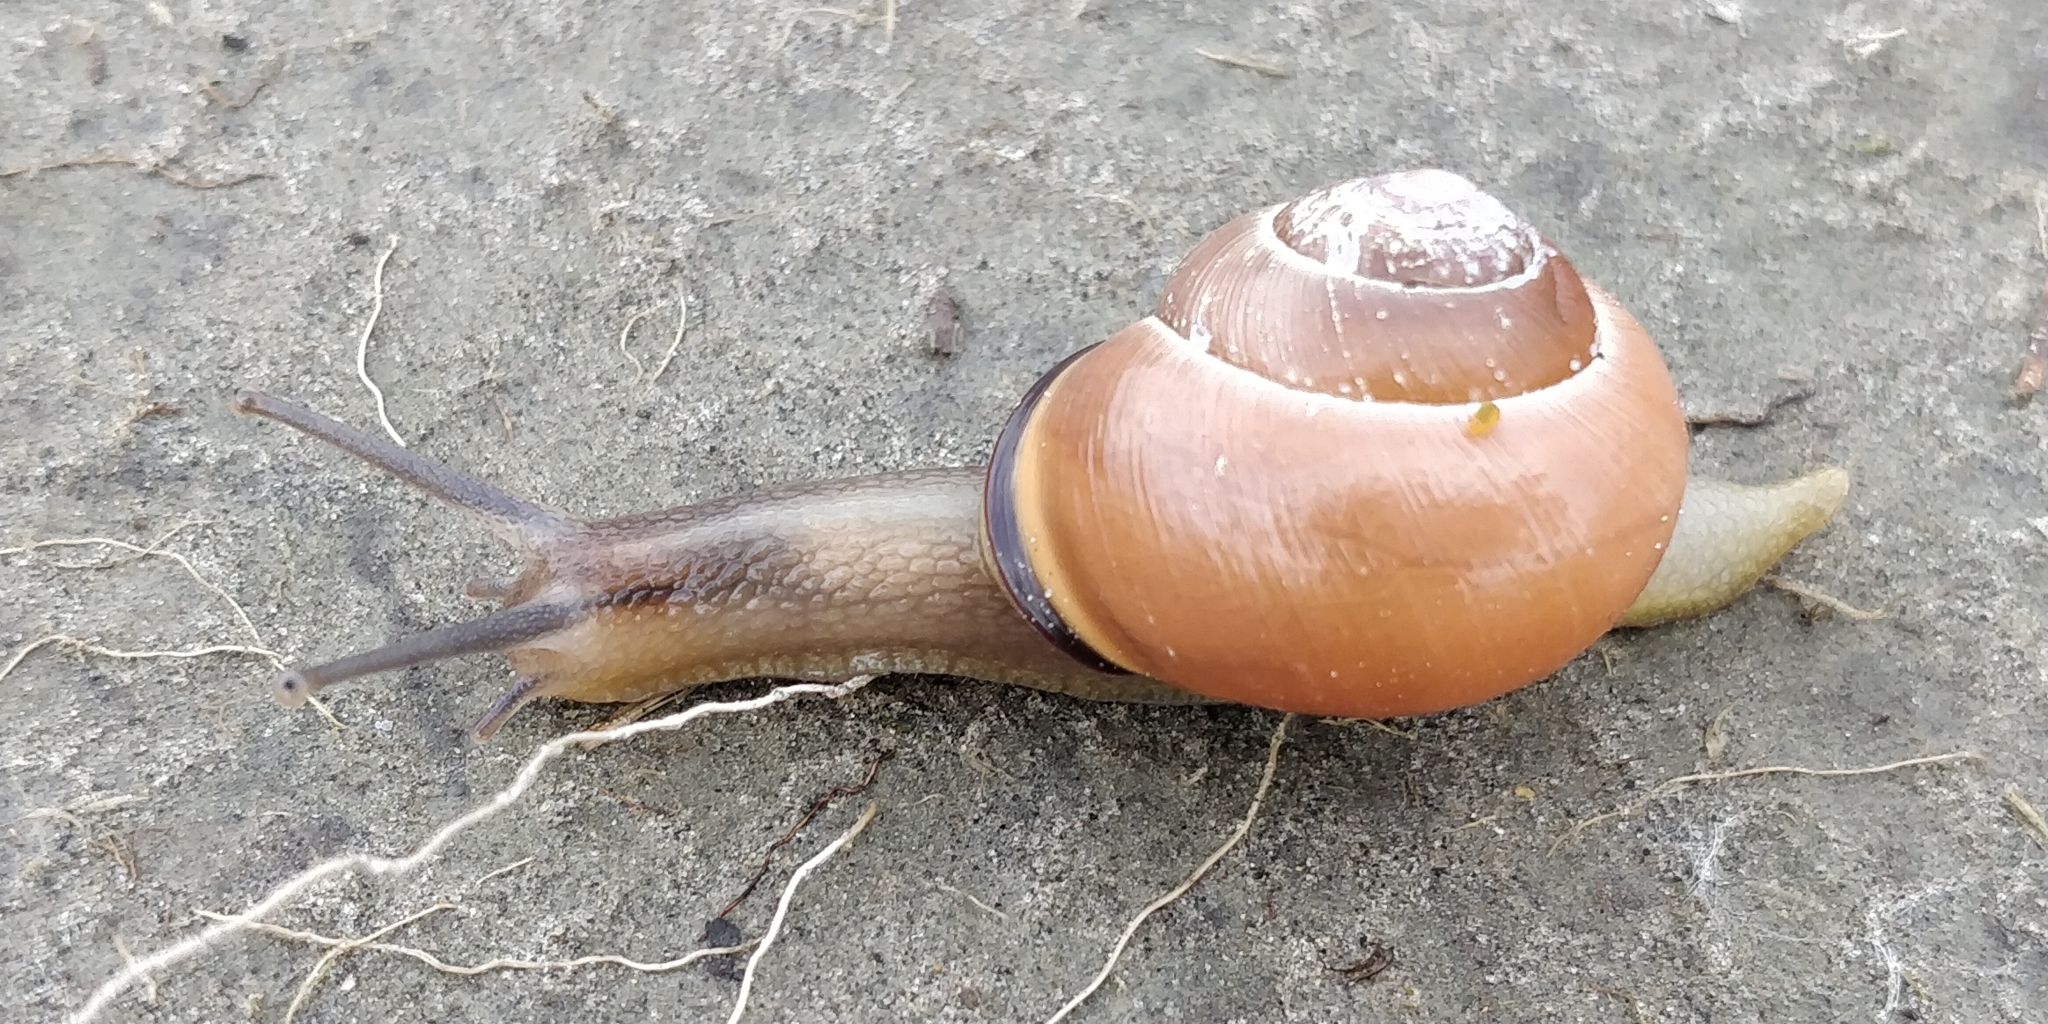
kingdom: Animalia
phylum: Mollusca
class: Gastropoda
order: Stylommatophora
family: Helicidae
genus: Cepaea
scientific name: Cepaea nemoralis
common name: Grovesnail
